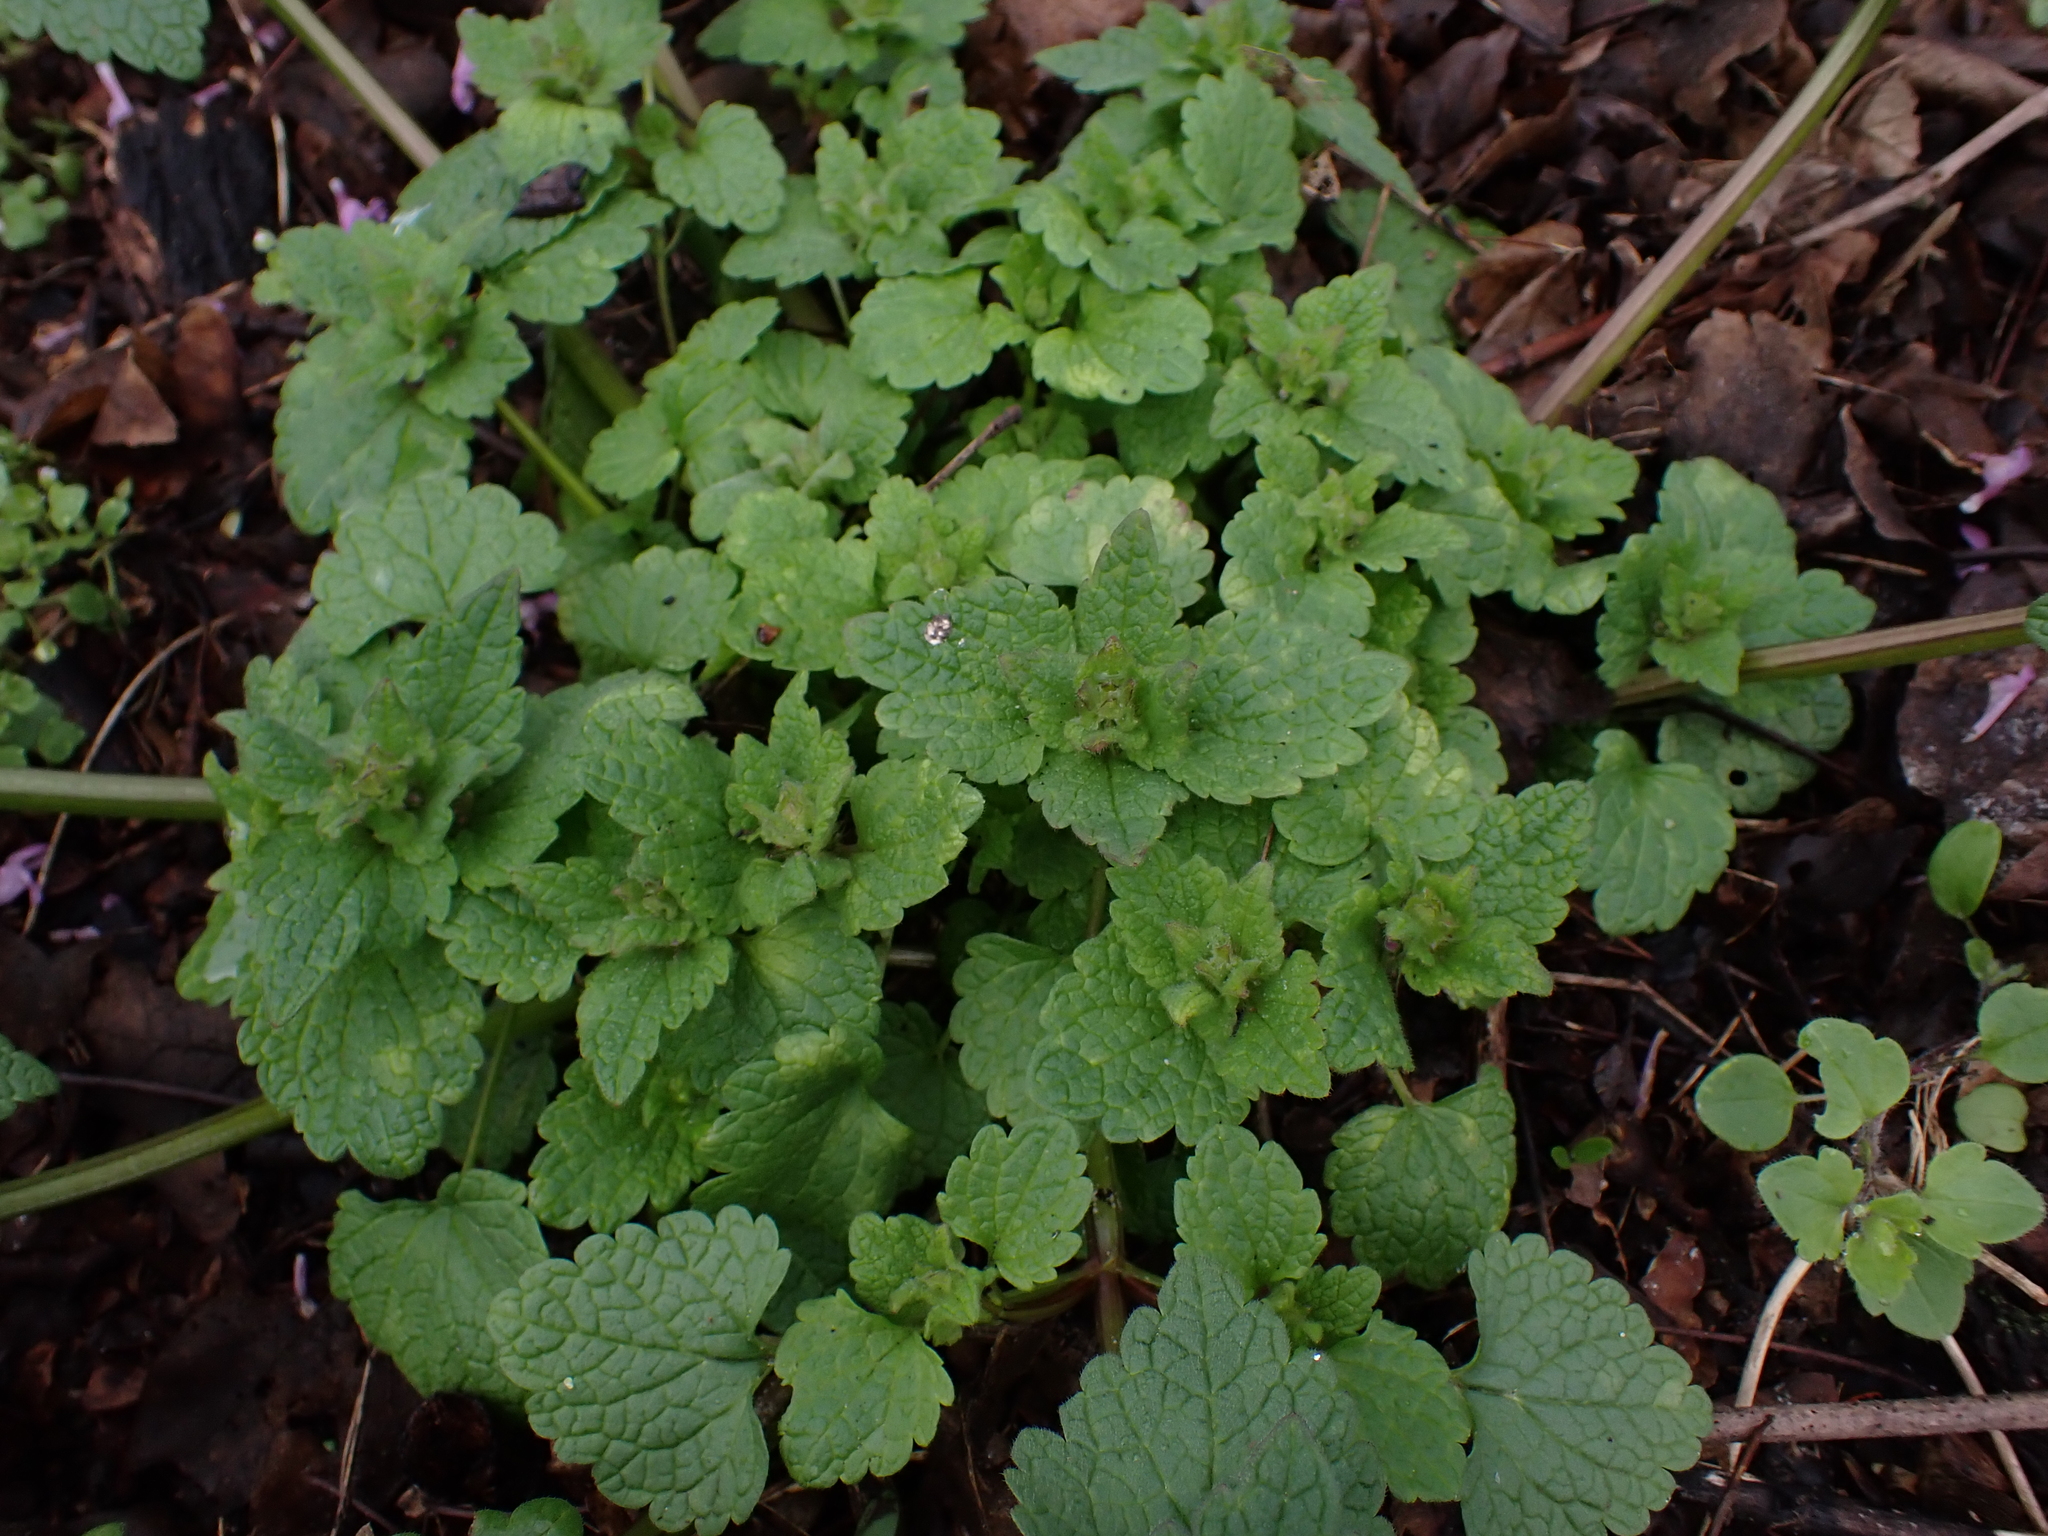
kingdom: Chromista
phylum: Oomycota
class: Peronosporea
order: Peronosporales
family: Peronosporaceae
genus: Peronospora
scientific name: Peronospora lamii
